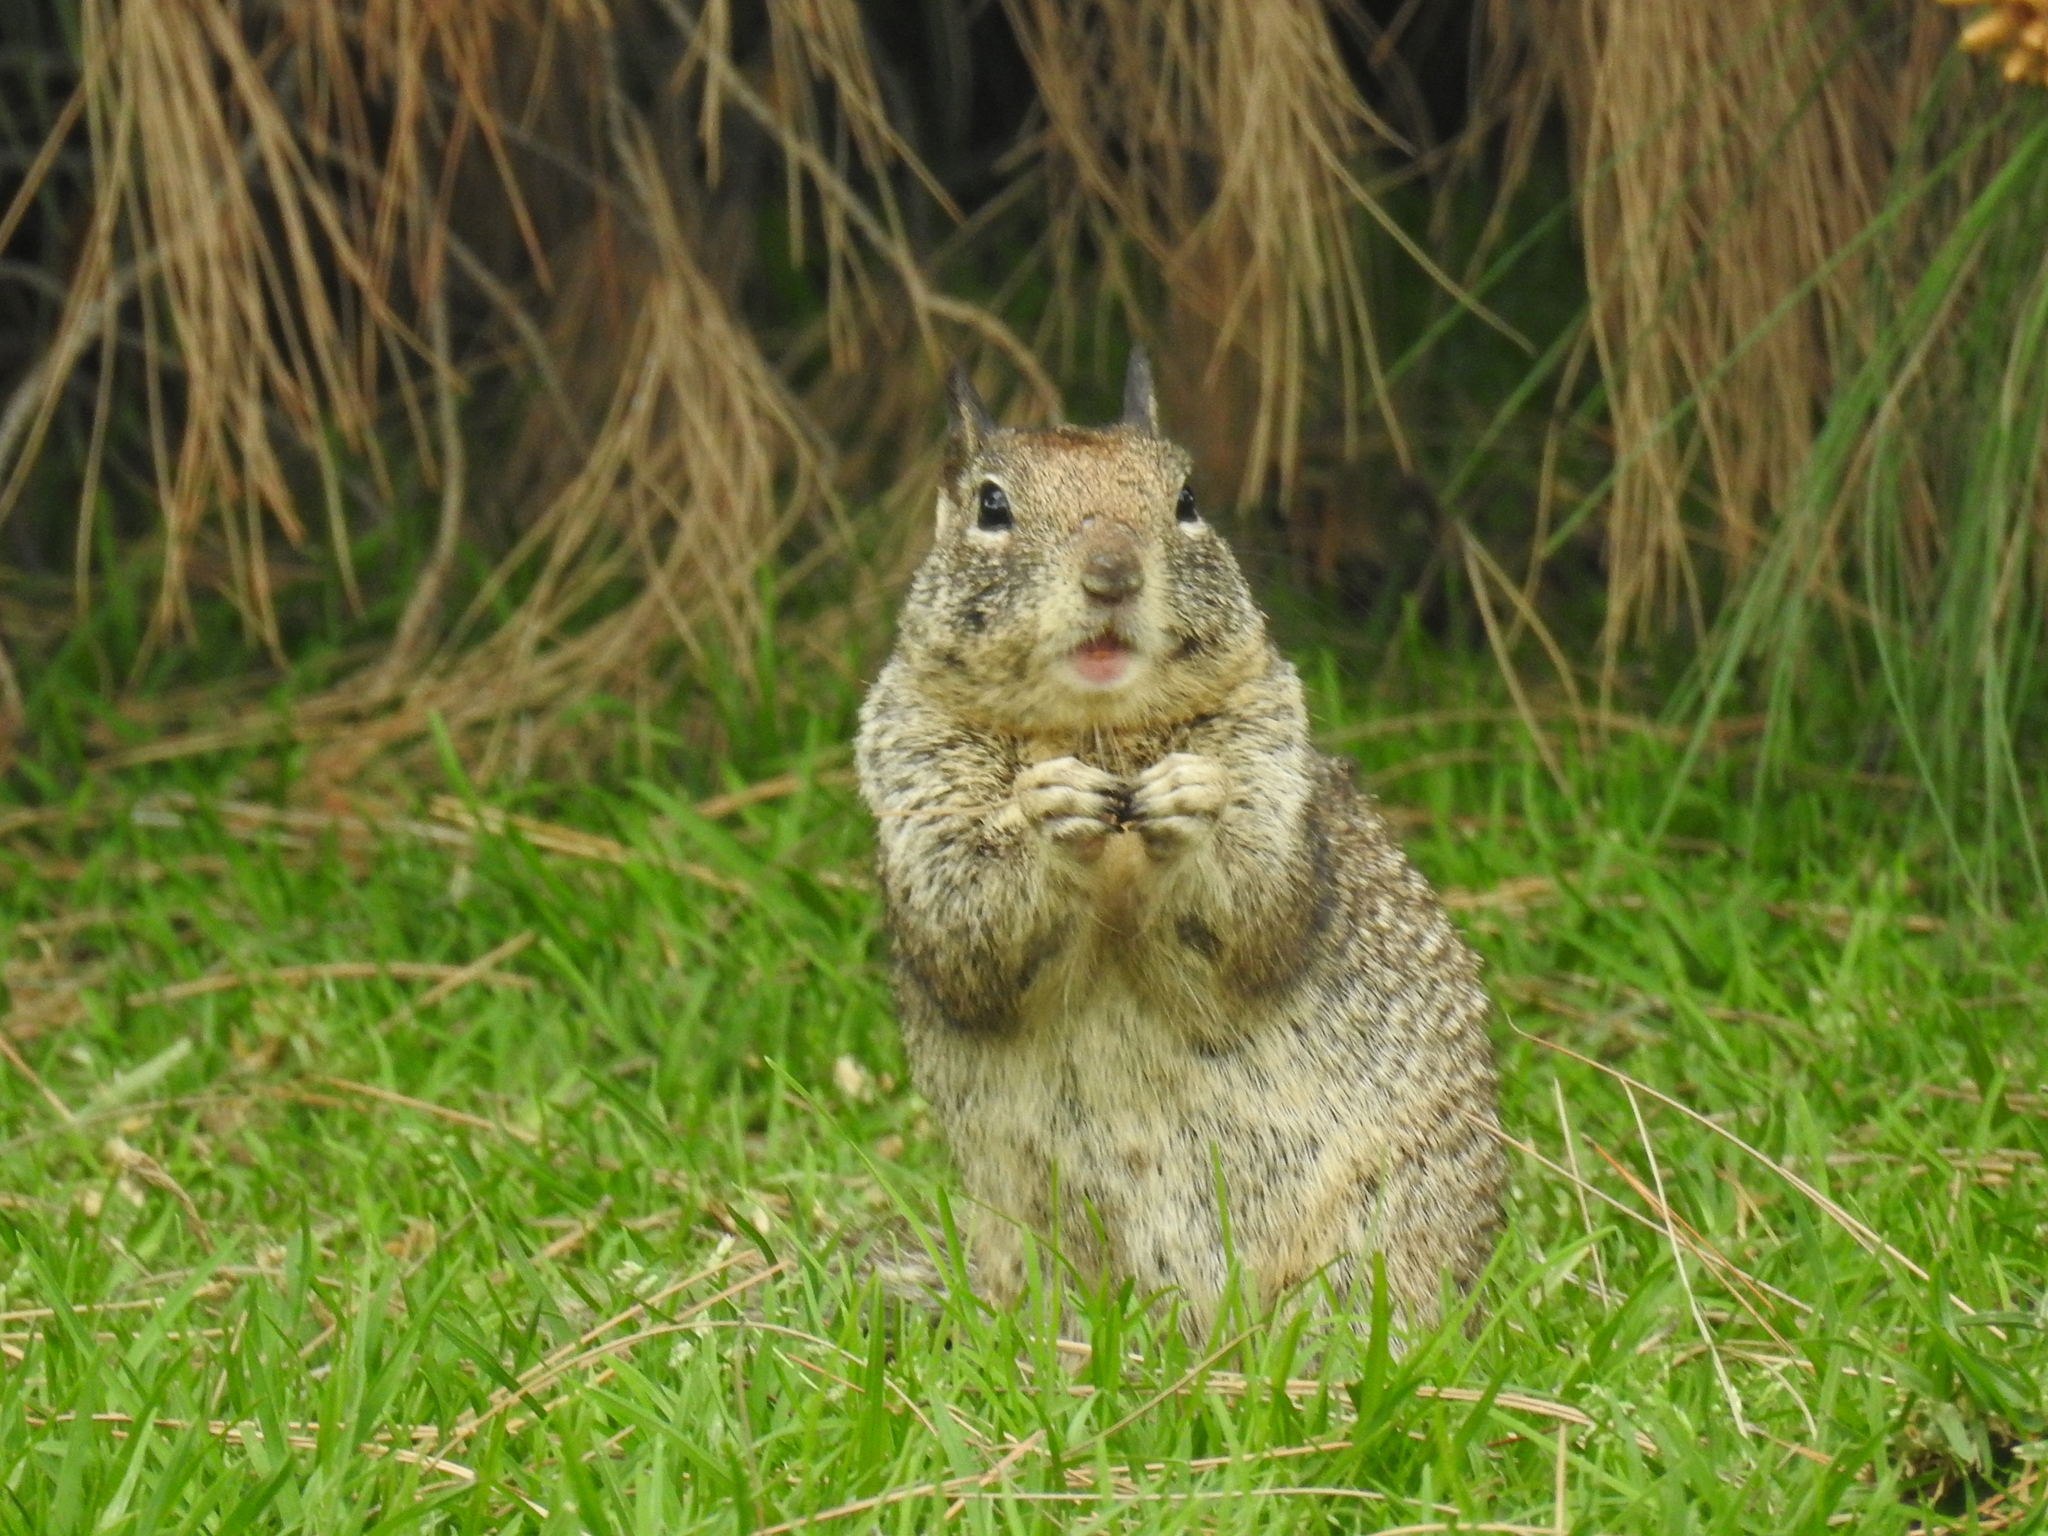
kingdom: Animalia
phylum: Chordata
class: Mammalia
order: Rodentia
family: Sciuridae
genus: Otospermophilus
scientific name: Otospermophilus beecheyi
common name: California ground squirrel
